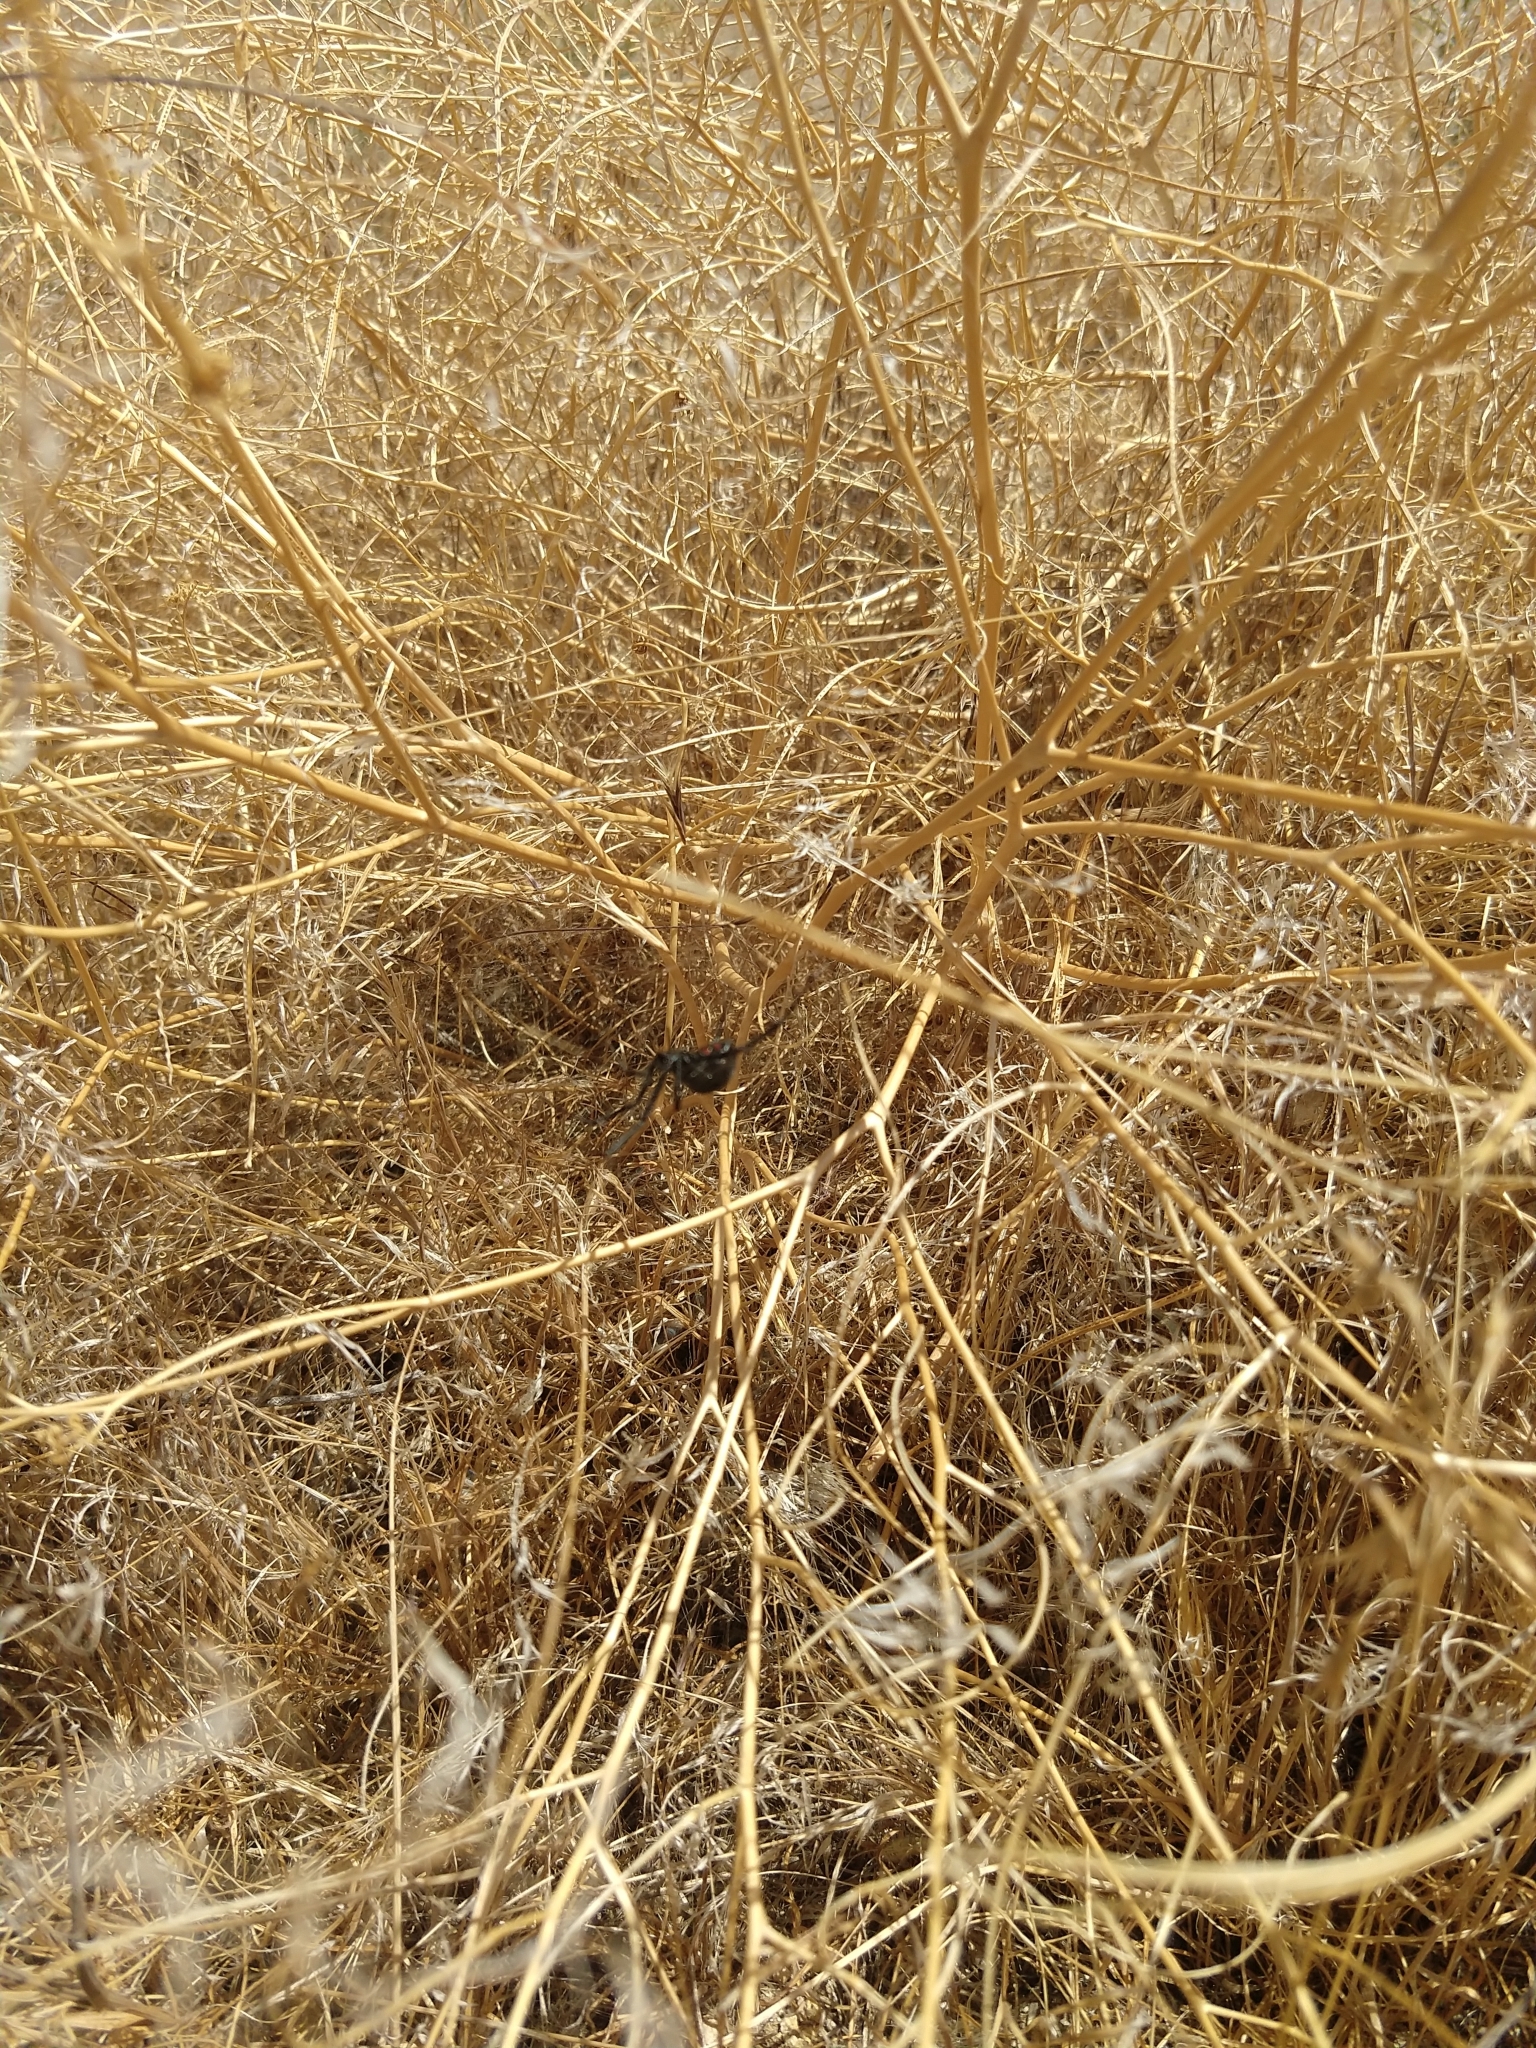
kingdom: Animalia
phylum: Arthropoda
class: Arachnida
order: Araneae
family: Theridiidae
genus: Latrodectus
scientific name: Latrodectus hesperus
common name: Western black widow
